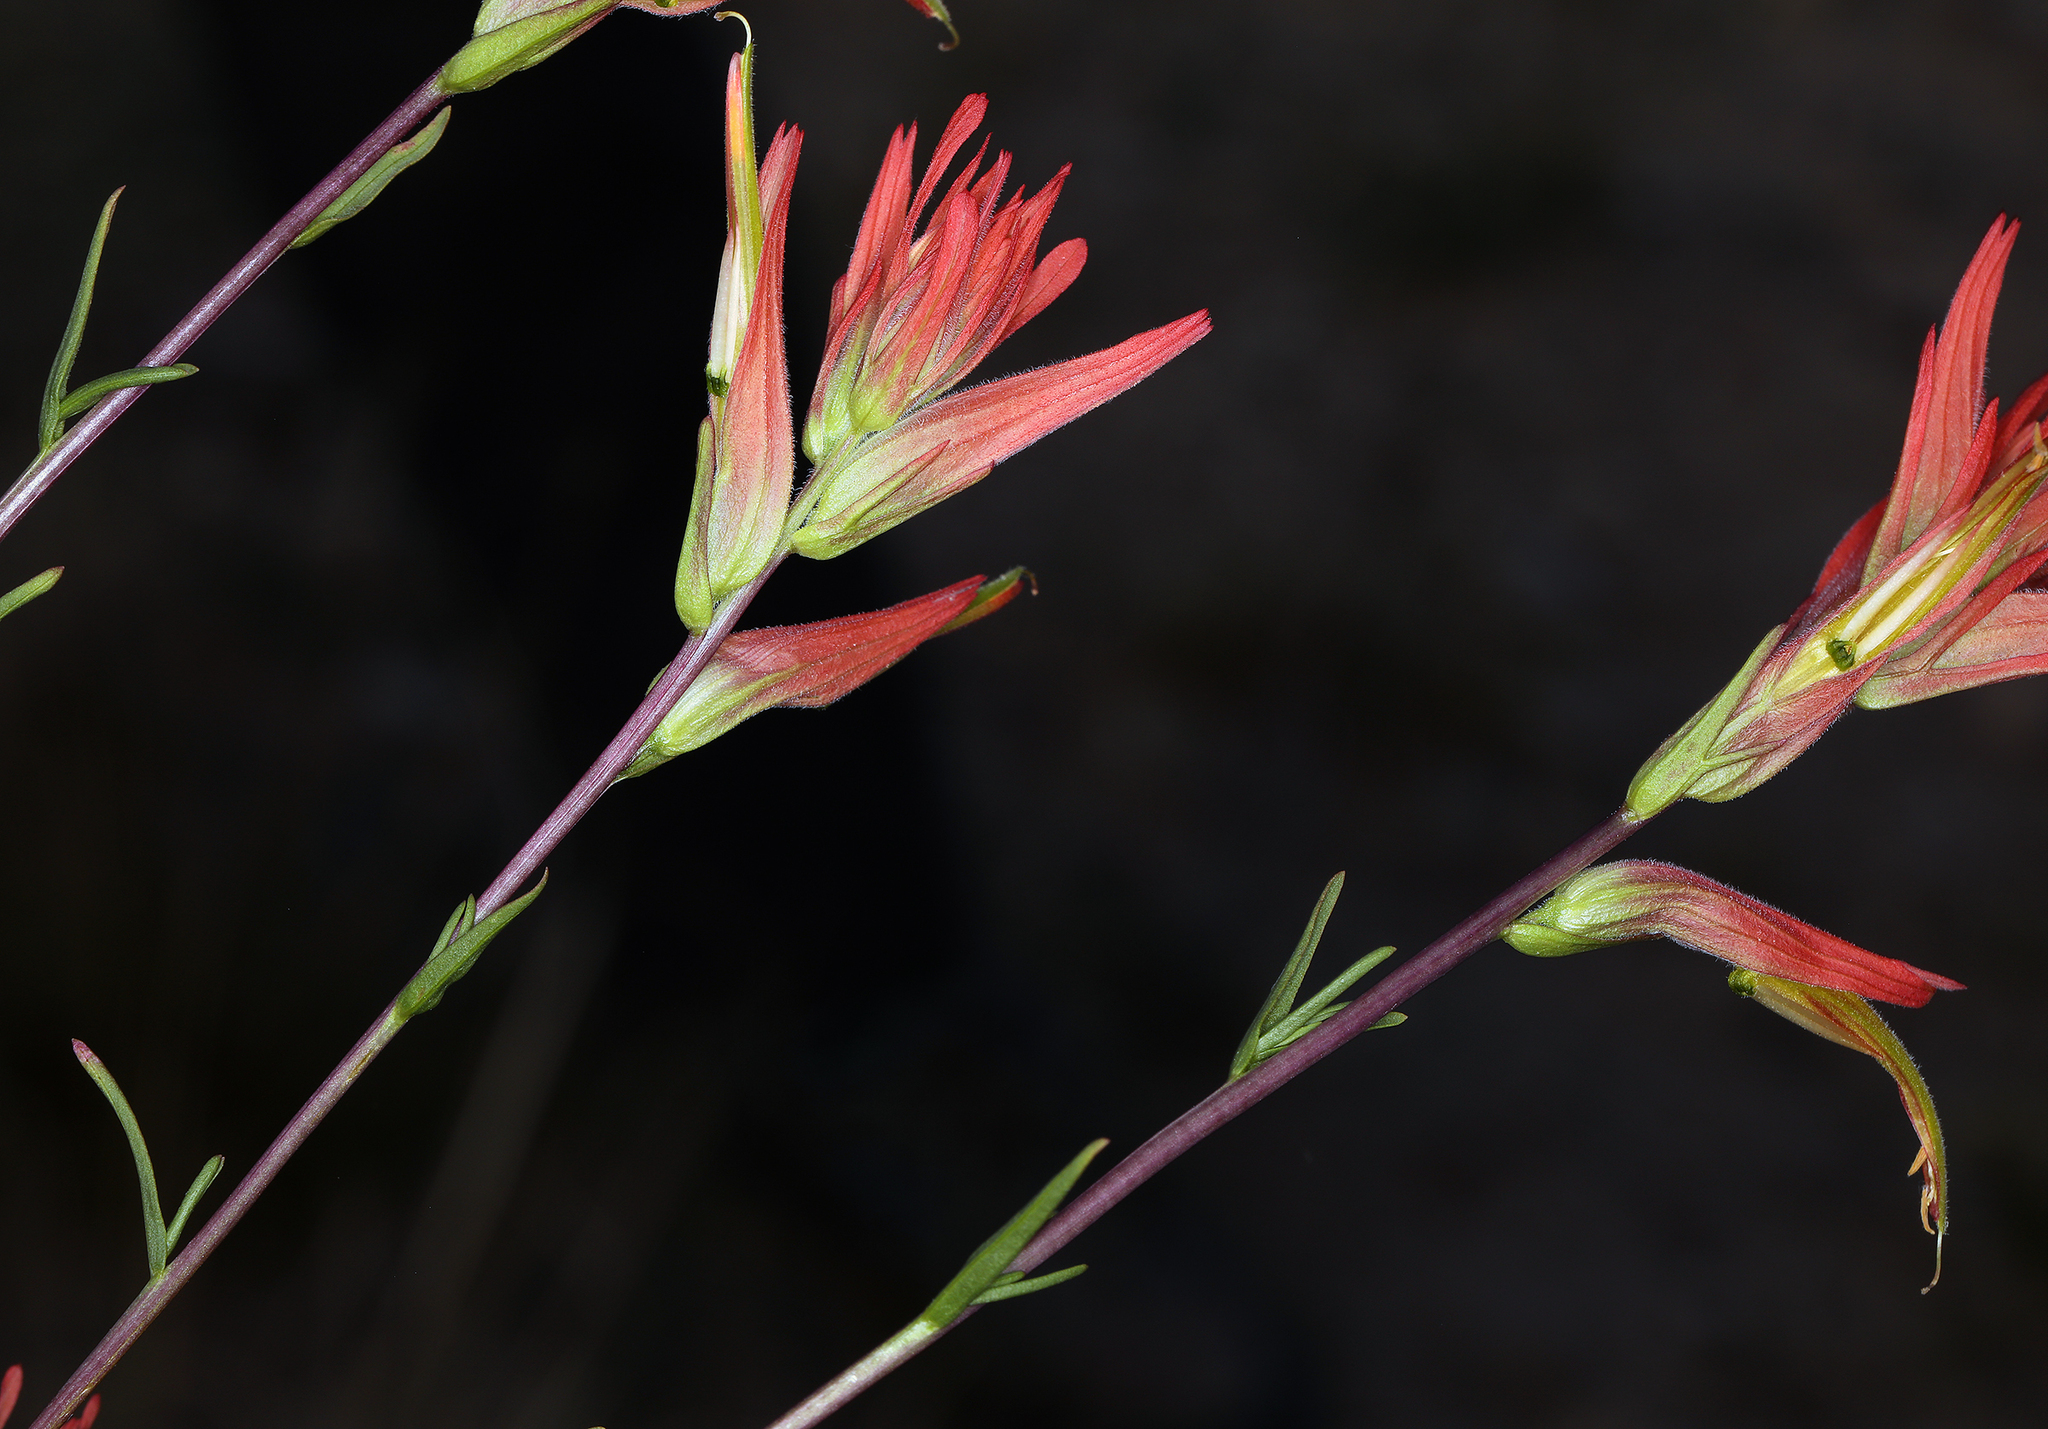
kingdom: Plantae
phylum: Tracheophyta
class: Magnoliopsida
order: Lamiales
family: Orobanchaceae
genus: Castilleja
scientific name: Castilleja linariifolia
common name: Wyoming paintbrush
